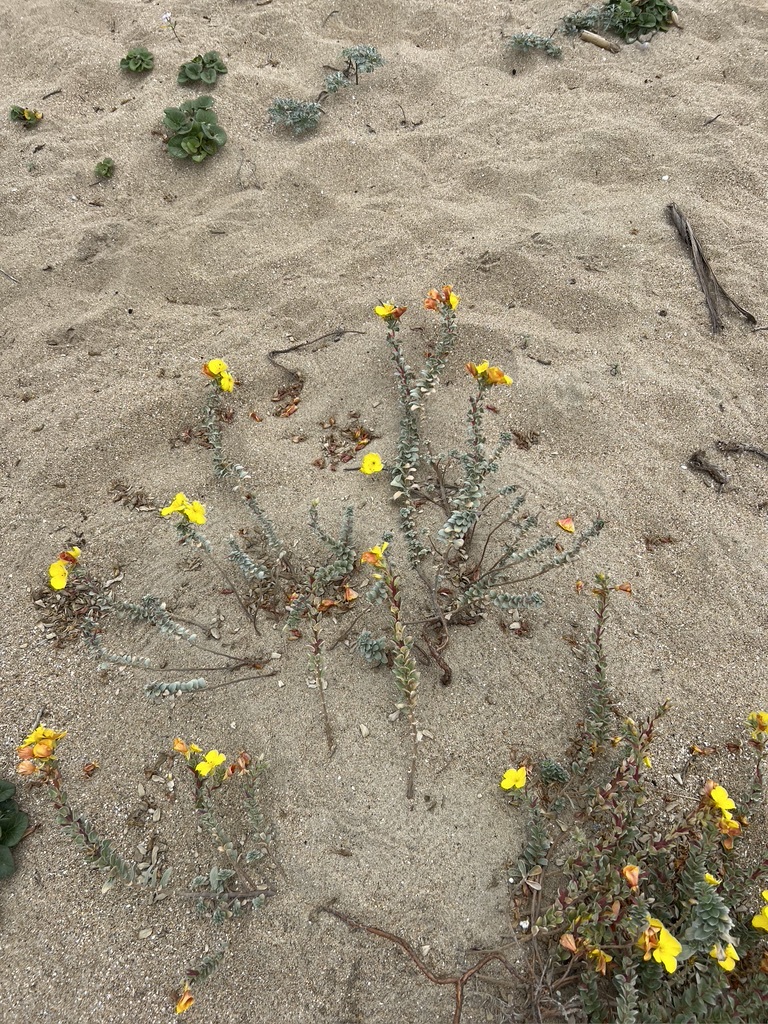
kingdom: Plantae
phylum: Tracheophyta
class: Magnoliopsida
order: Myrtales
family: Onagraceae
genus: Camissoniopsis
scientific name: Camissoniopsis cheiranthifolia
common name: Beach suncup
